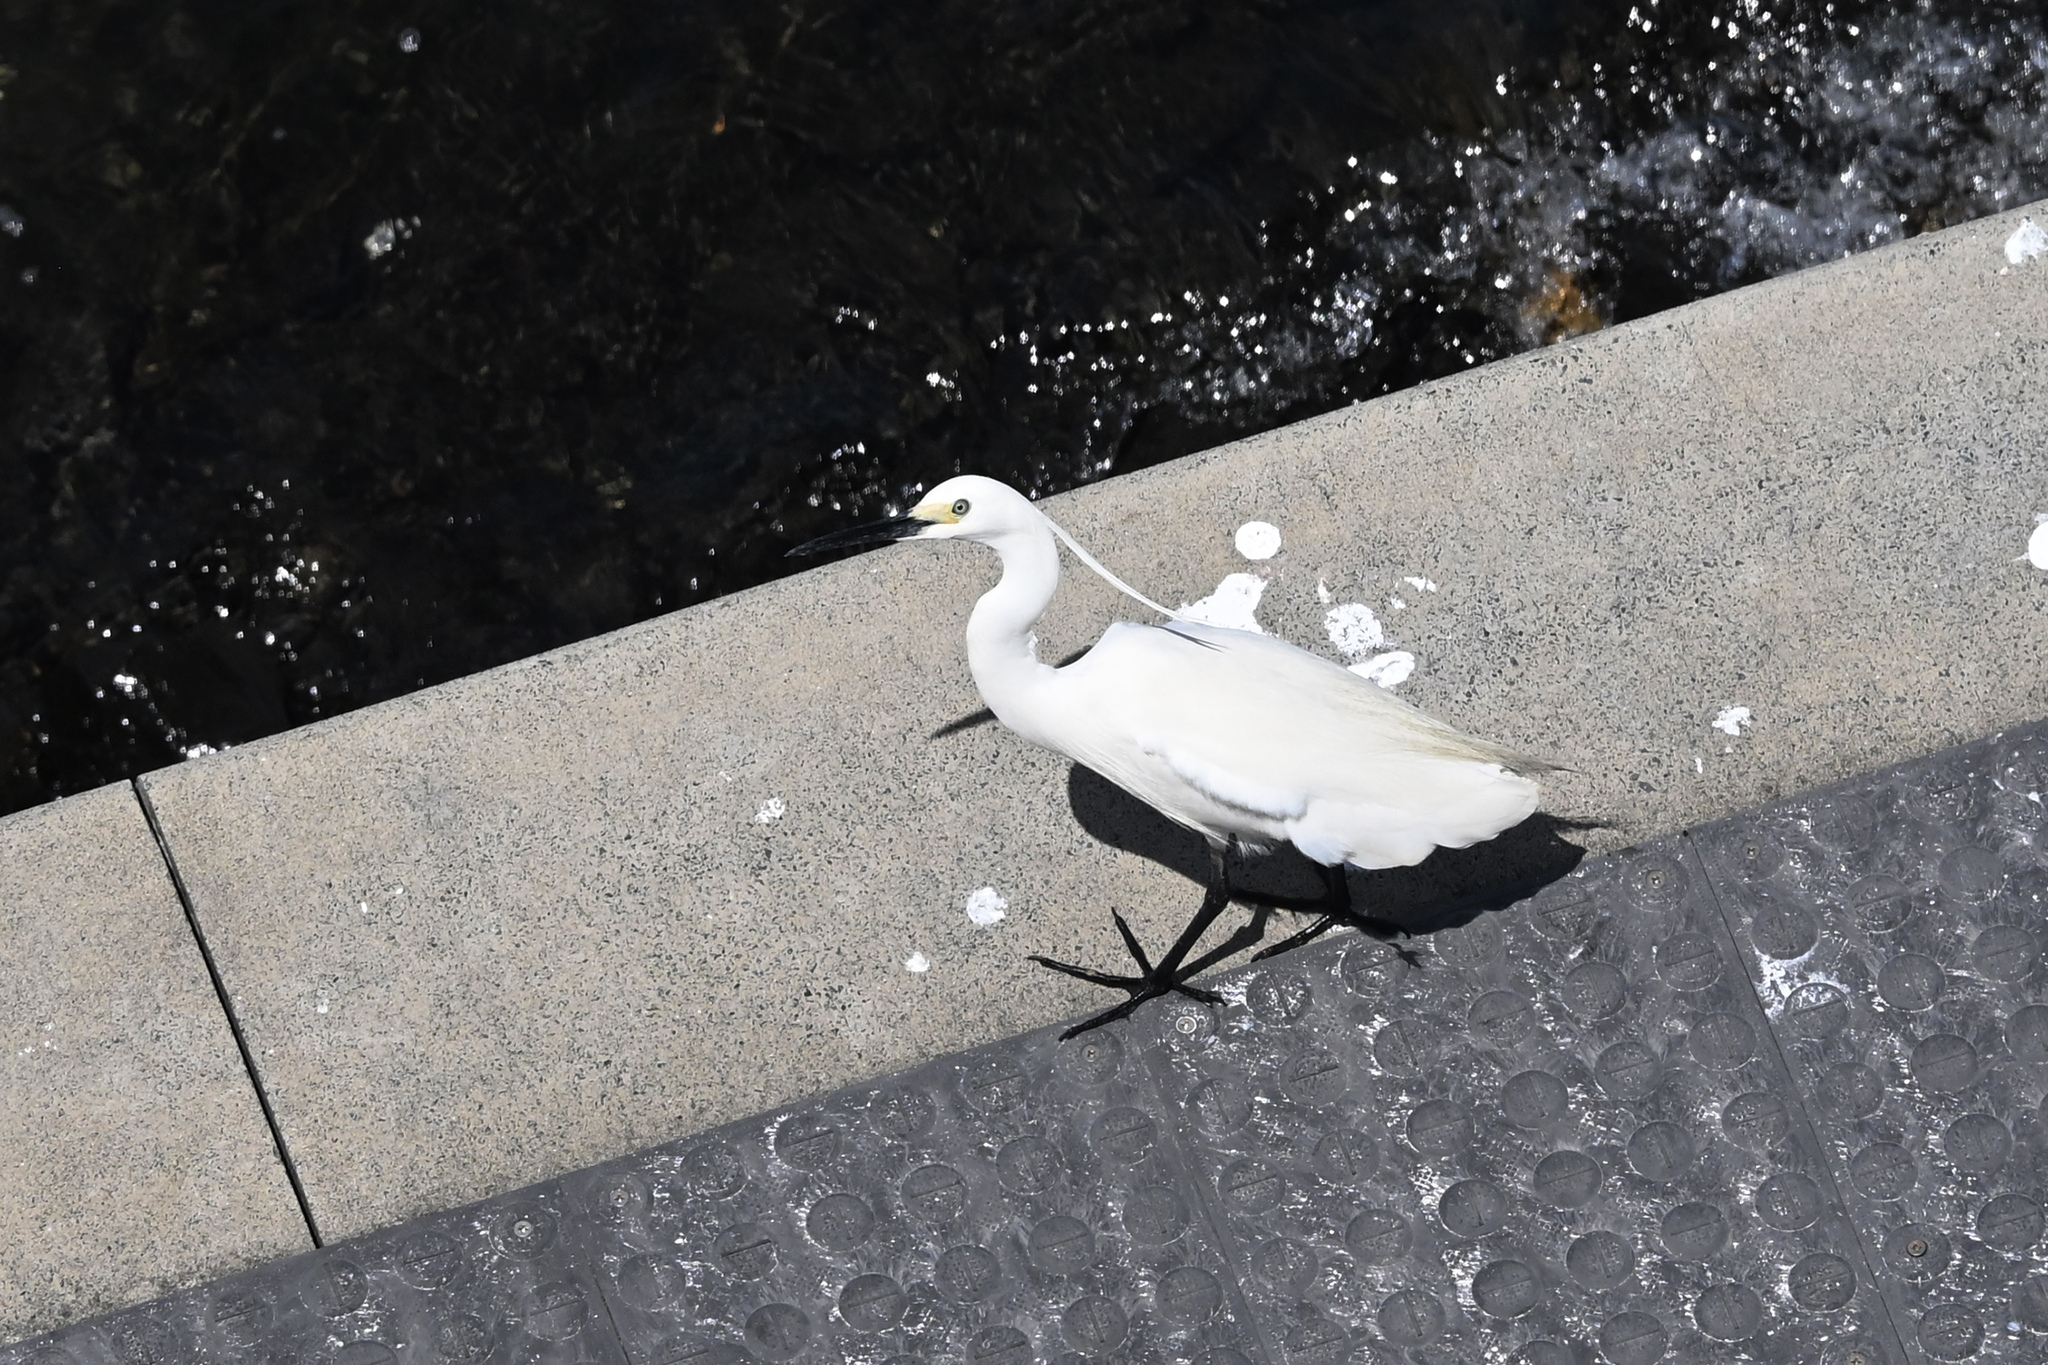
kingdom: Animalia
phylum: Chordata
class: Aves
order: Pelecaniformes
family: Ardeidae
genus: Egretta
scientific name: Egretta garzetta
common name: Little egret
